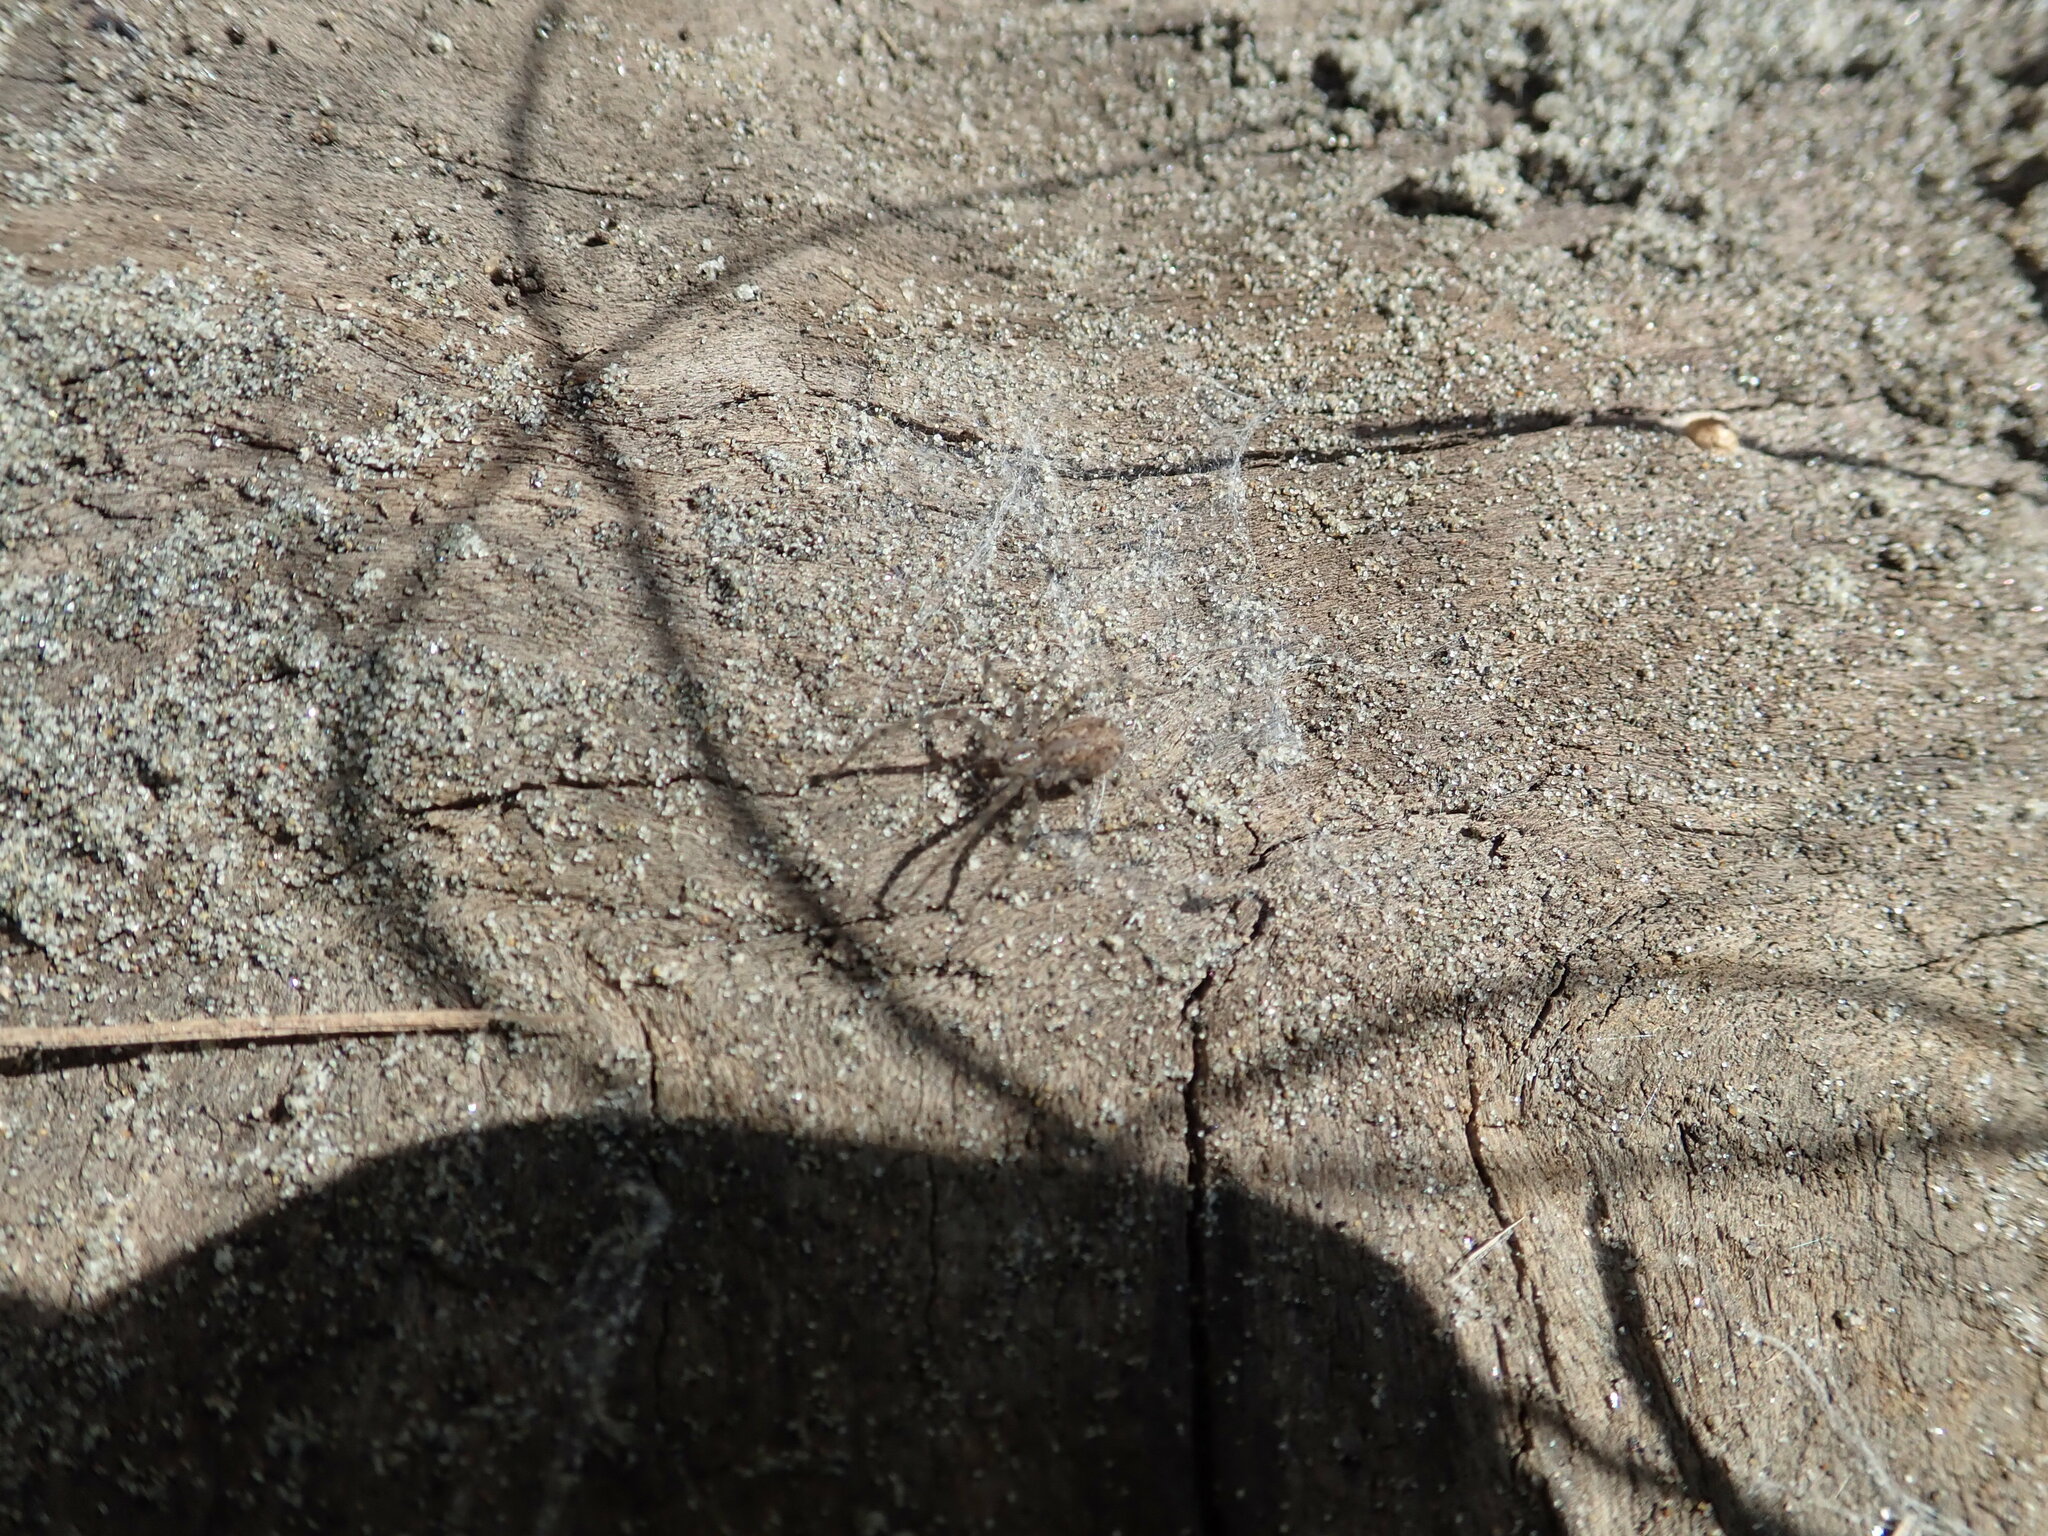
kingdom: Animalia
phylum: Arthropoda
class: Arachnida
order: Araneae
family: Stiphidiidae
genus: Stiphidion
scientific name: Stiphidion facetum
